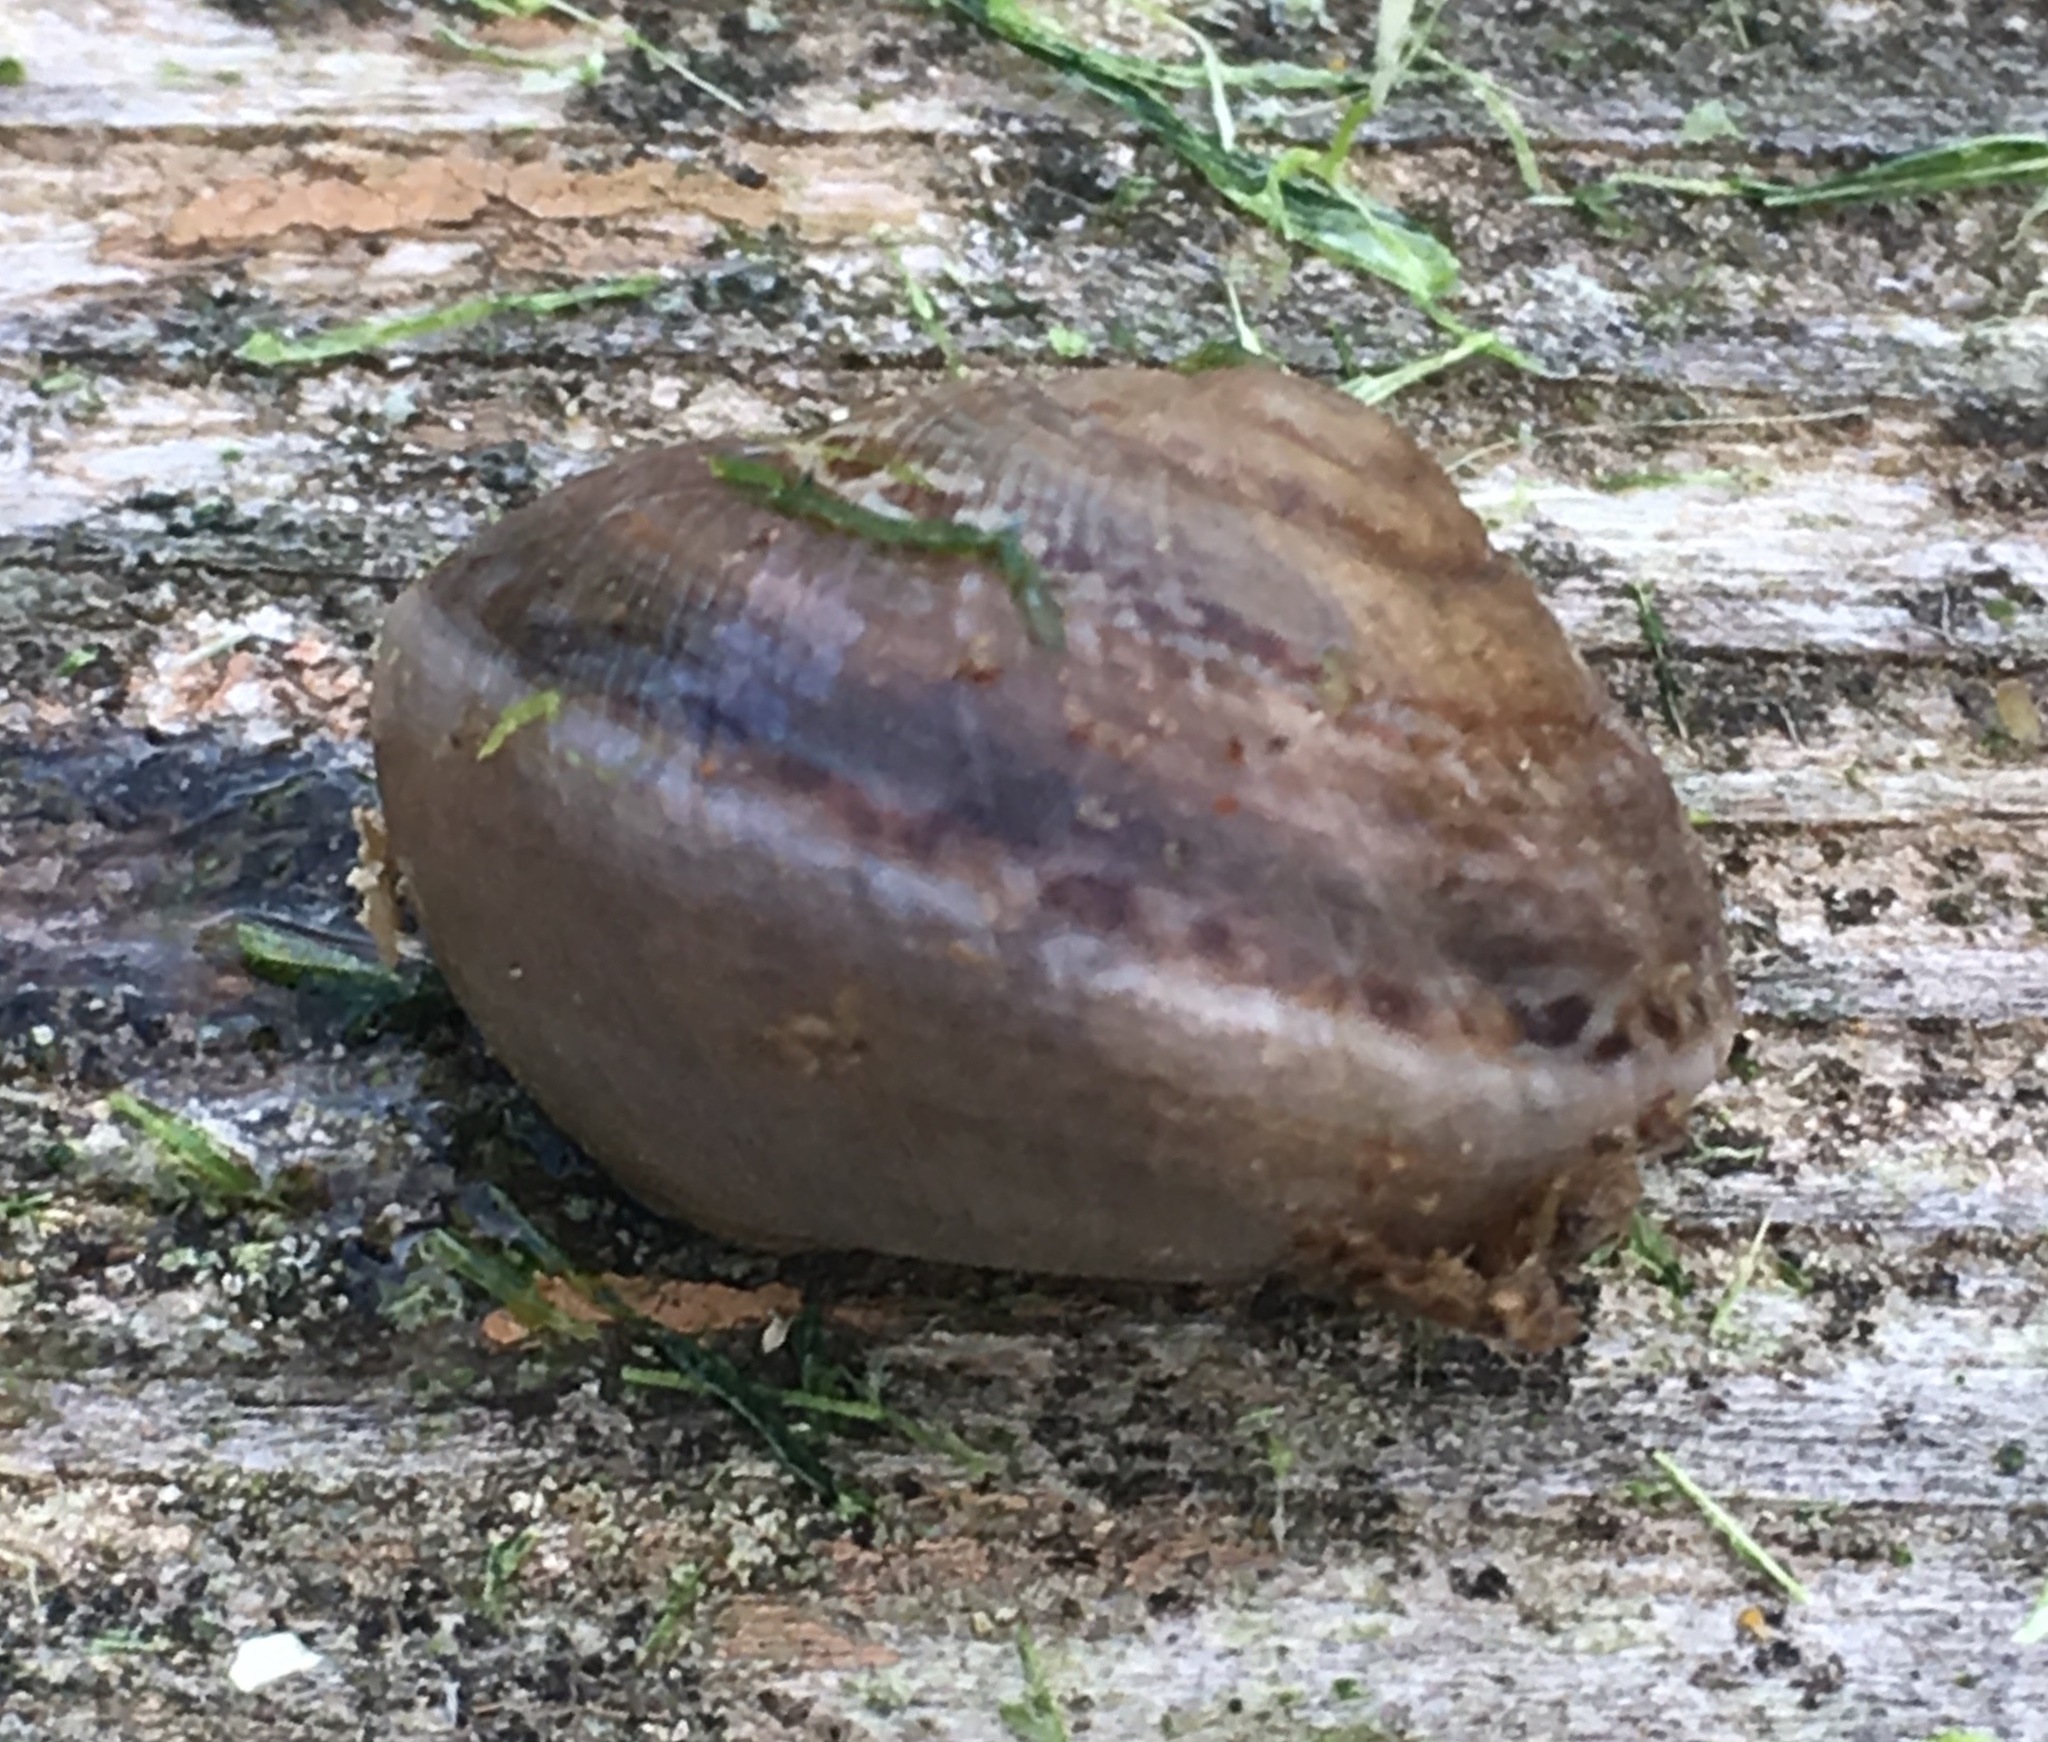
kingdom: Animalia
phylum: Mollusca
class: Gastropoda
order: Stylommatophora
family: Xanthonychidae
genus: Xerarionta
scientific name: Xerarionta tryoni
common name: Bicolor cactus snail
